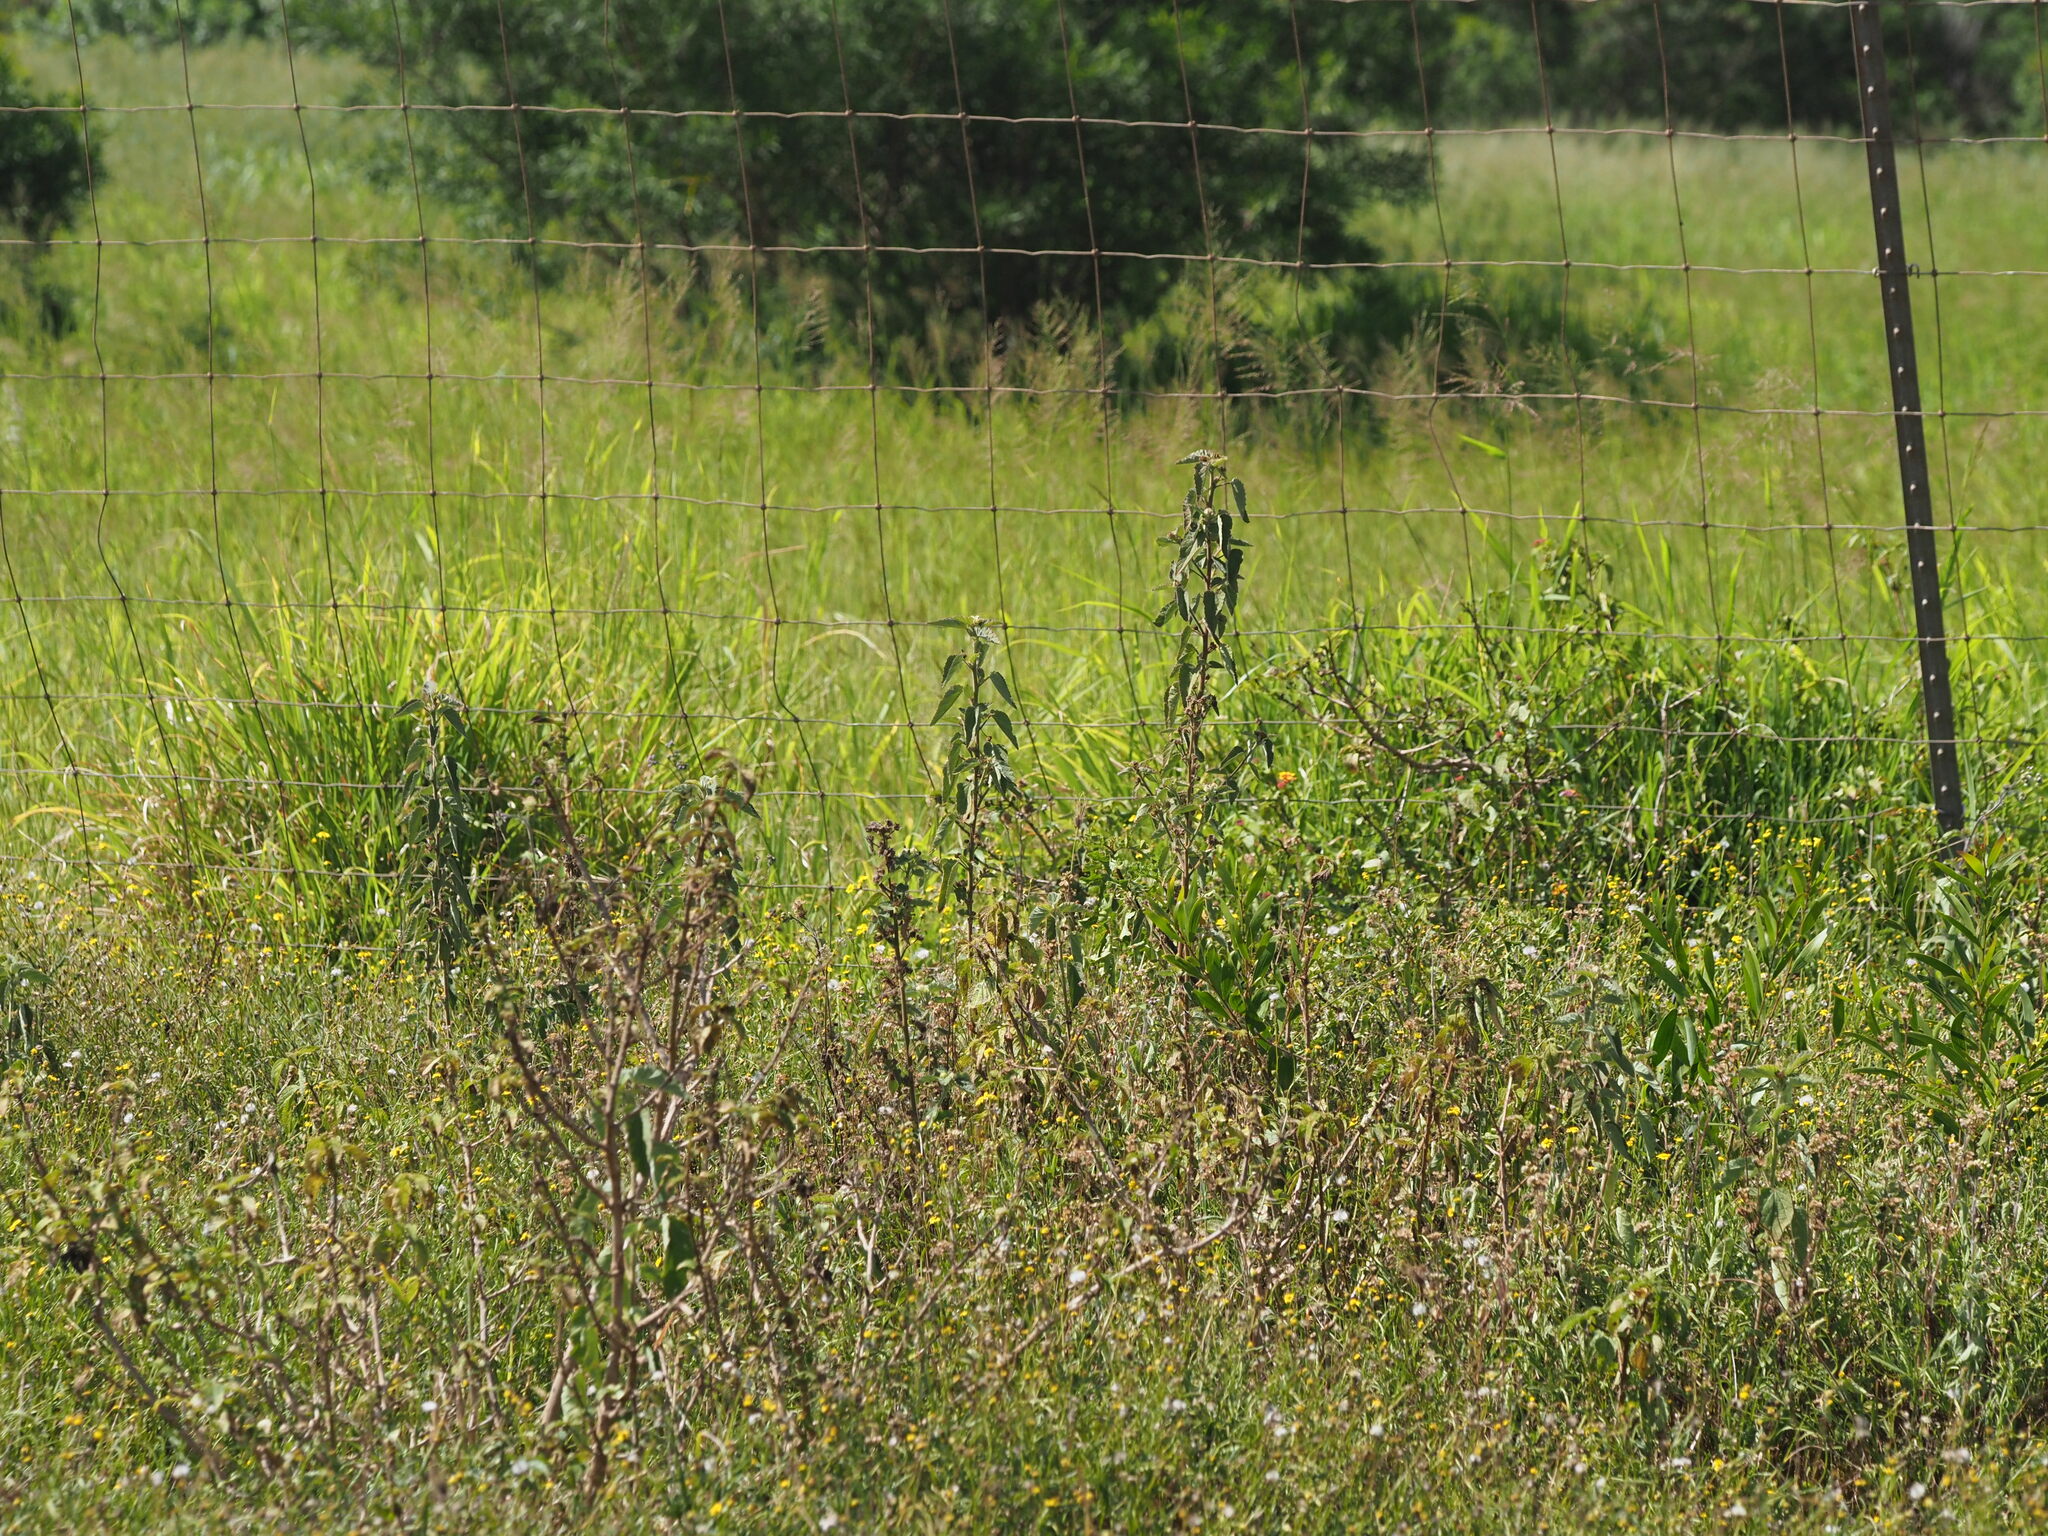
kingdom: Plantae
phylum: Tracheophyta
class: Magnoliopsida
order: Malvales
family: Malvaceae
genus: Sida
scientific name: Sida cordifolia
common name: Ilima
